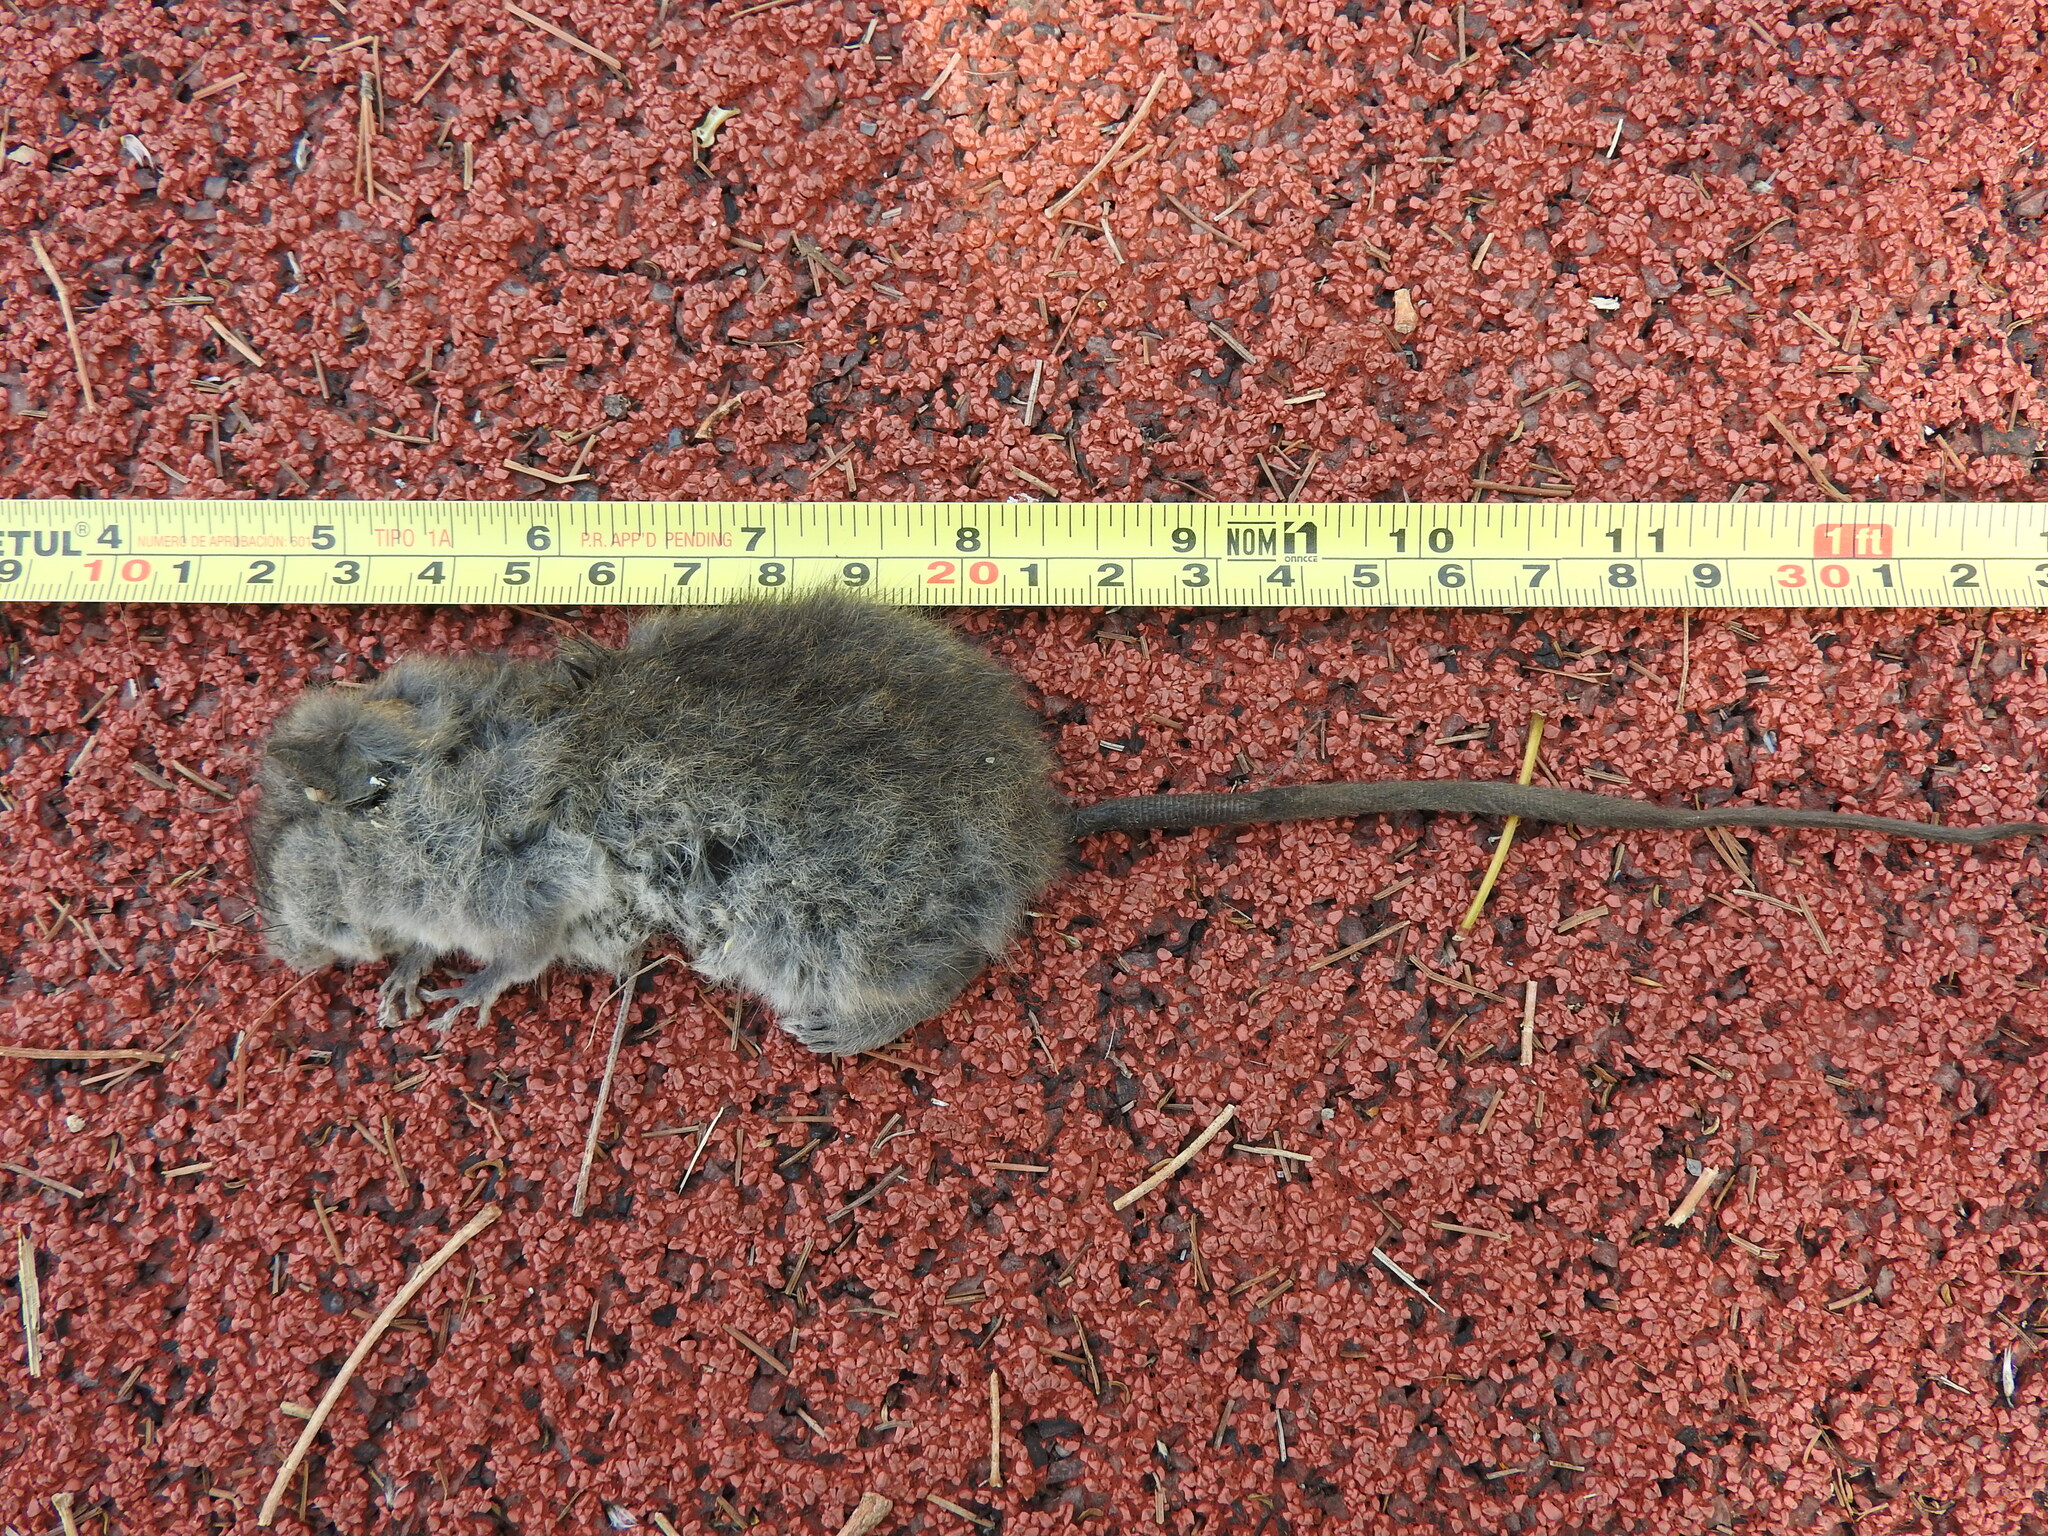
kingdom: Animalia
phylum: Chordata
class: Mammalia
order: Rodentia
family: Cricetidae
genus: Peromyscus
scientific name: Peromyscus
